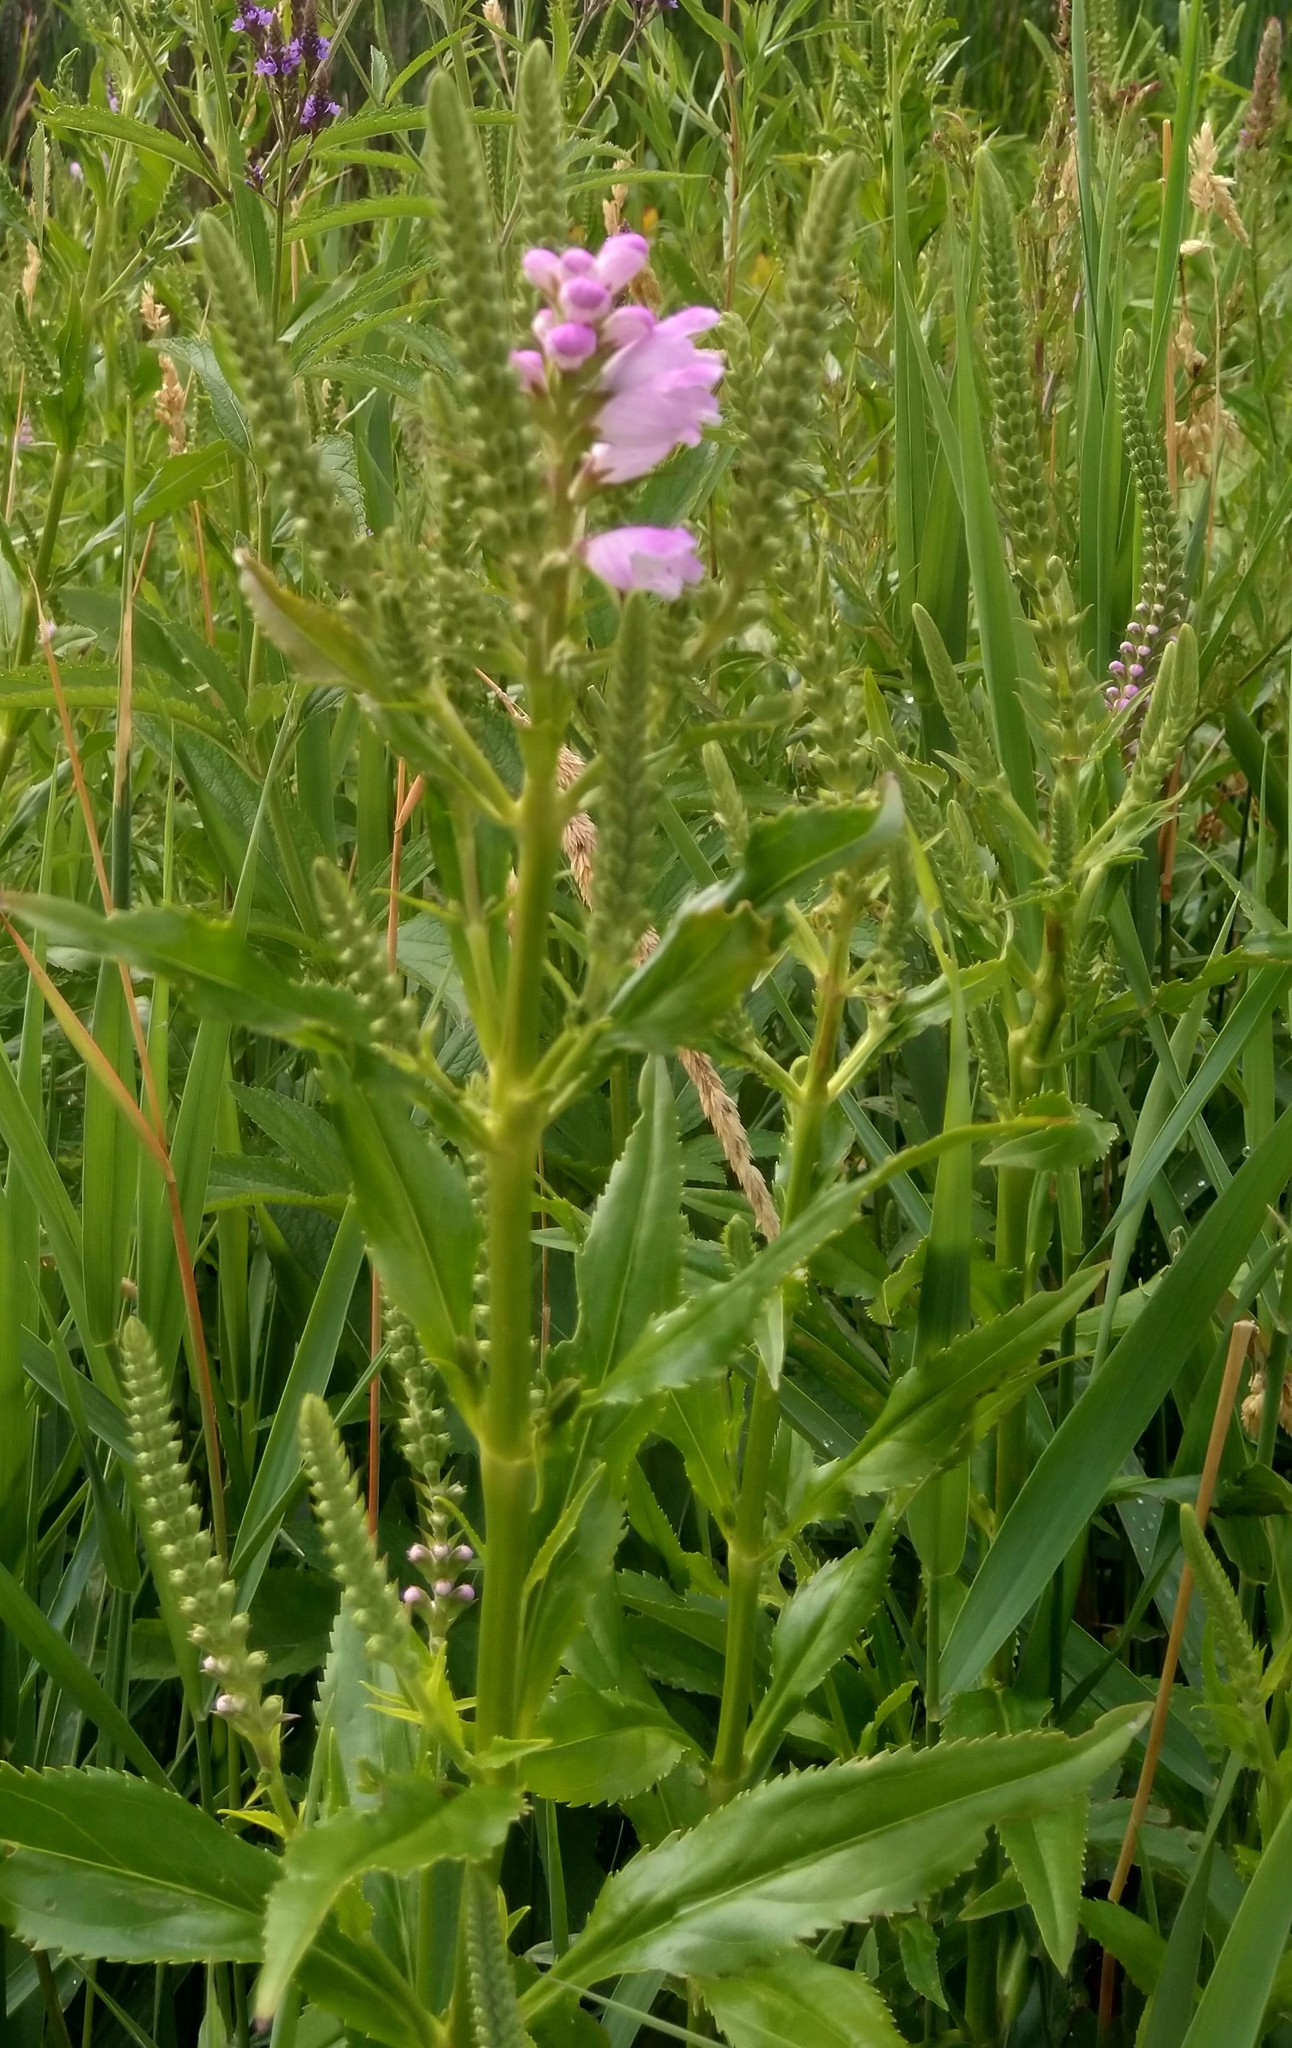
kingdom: Plantae
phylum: Tracheophyta
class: Magnoliopsida
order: Lamiales
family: Lamiaceae
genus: Physostegia
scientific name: Physostegia virginiana
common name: Obedient-plant
